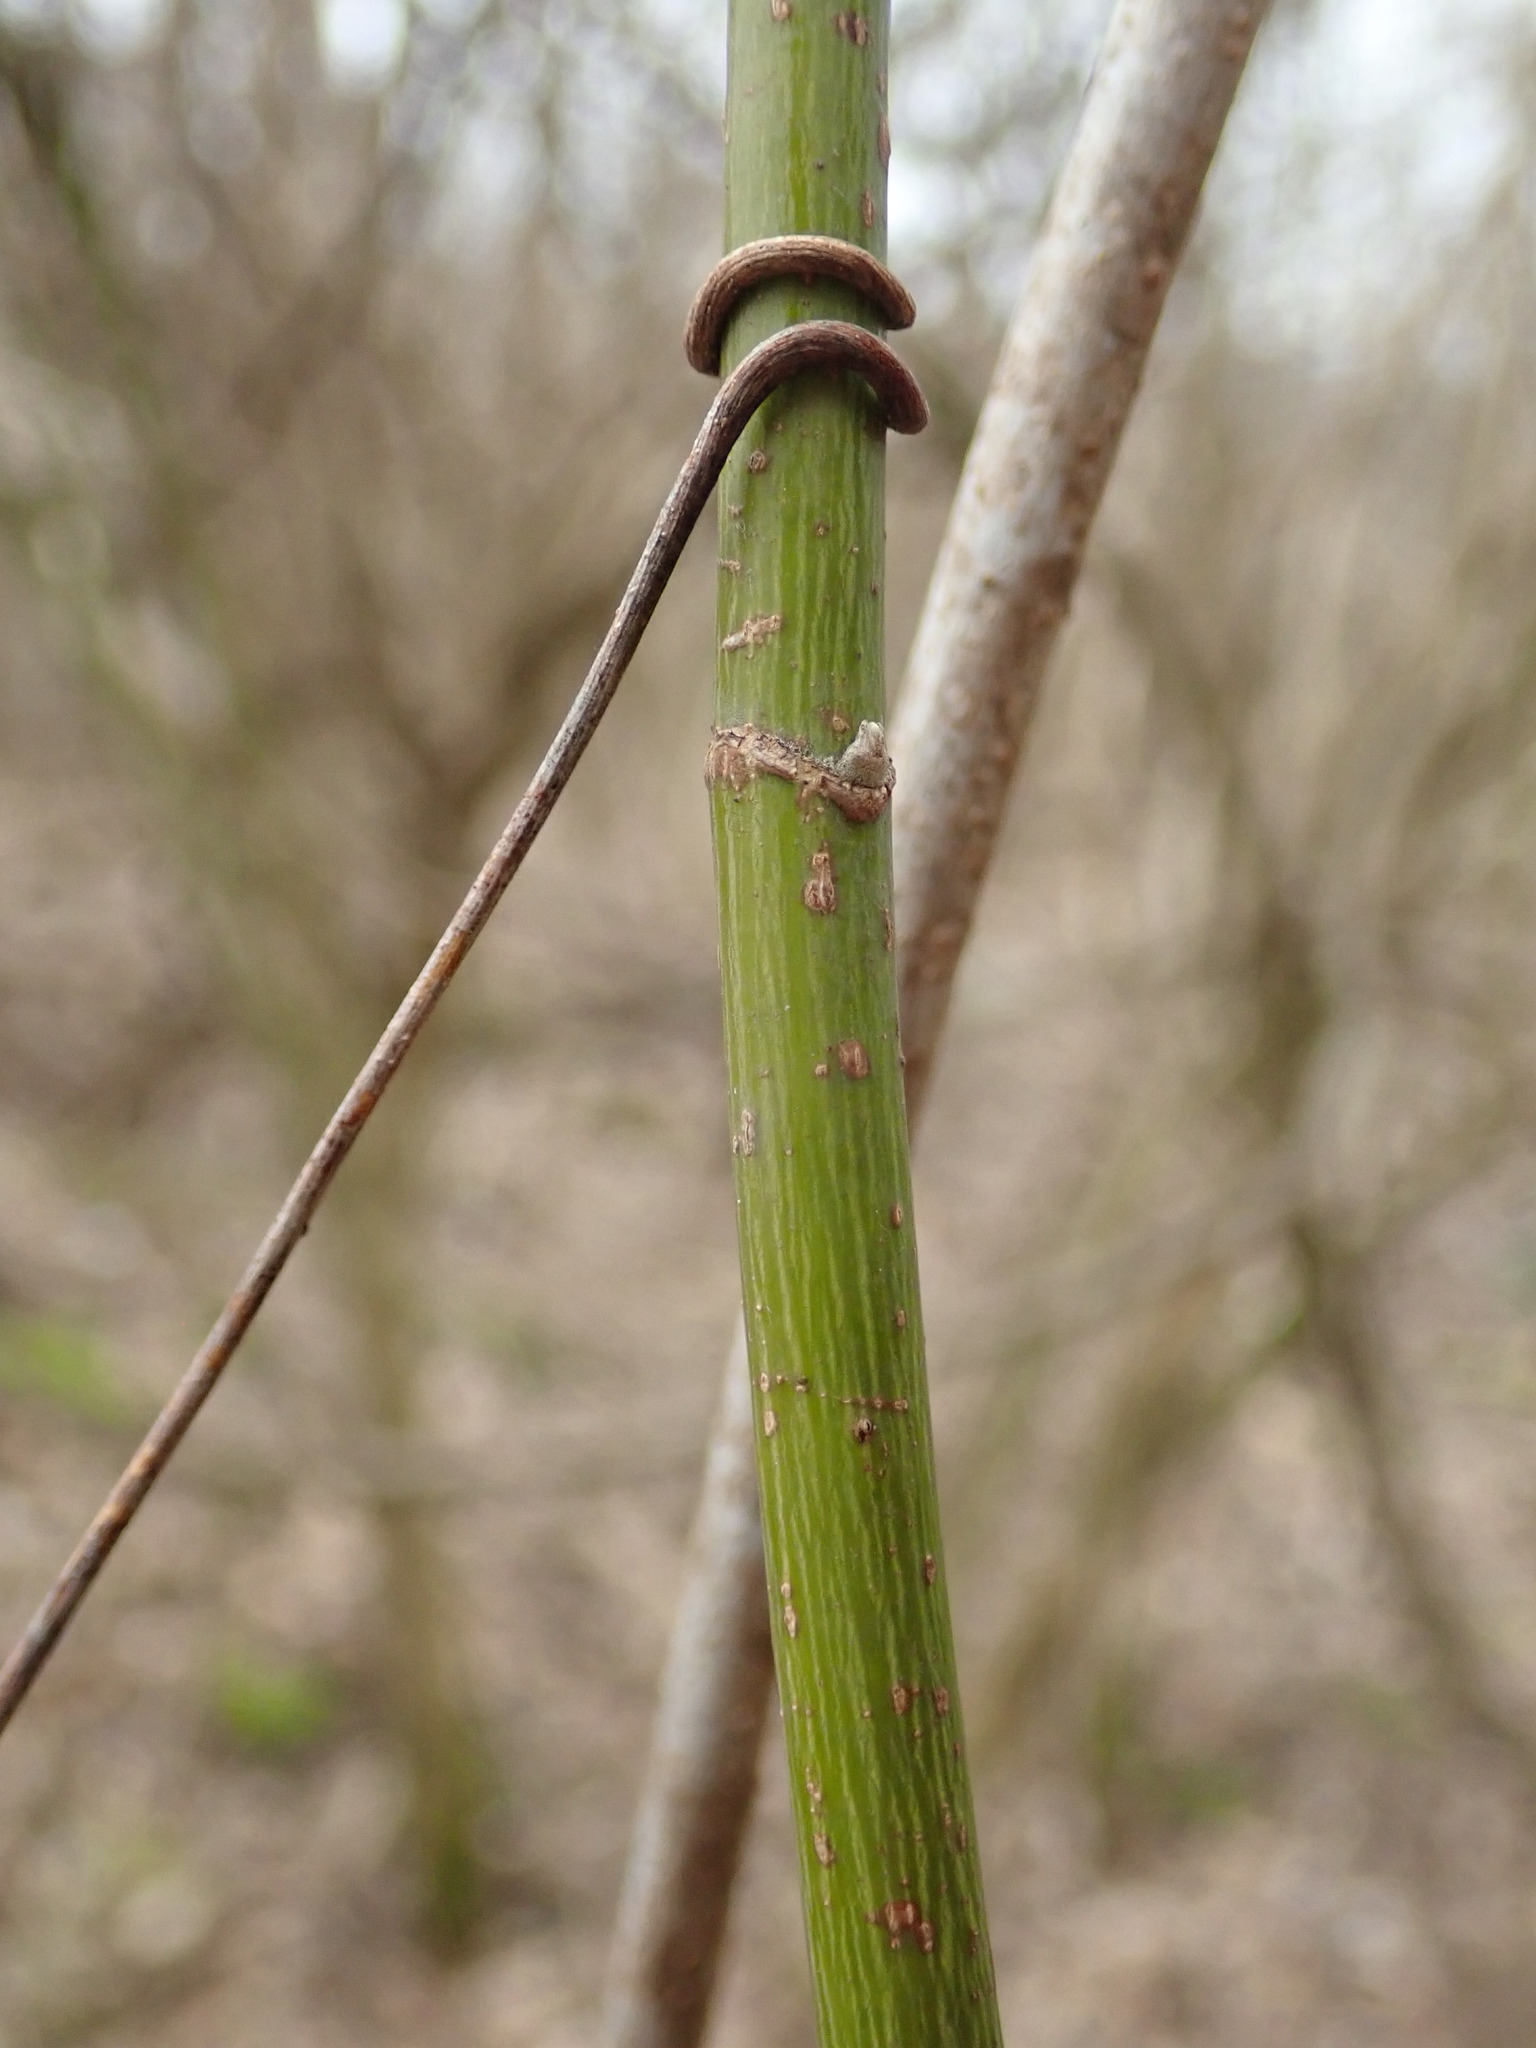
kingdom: Plantae
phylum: Tracheophyta
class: Magnoliopsida
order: Sapindales
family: Sapindaceae
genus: Acer
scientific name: Acer negundo
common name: Ashleaf maple
